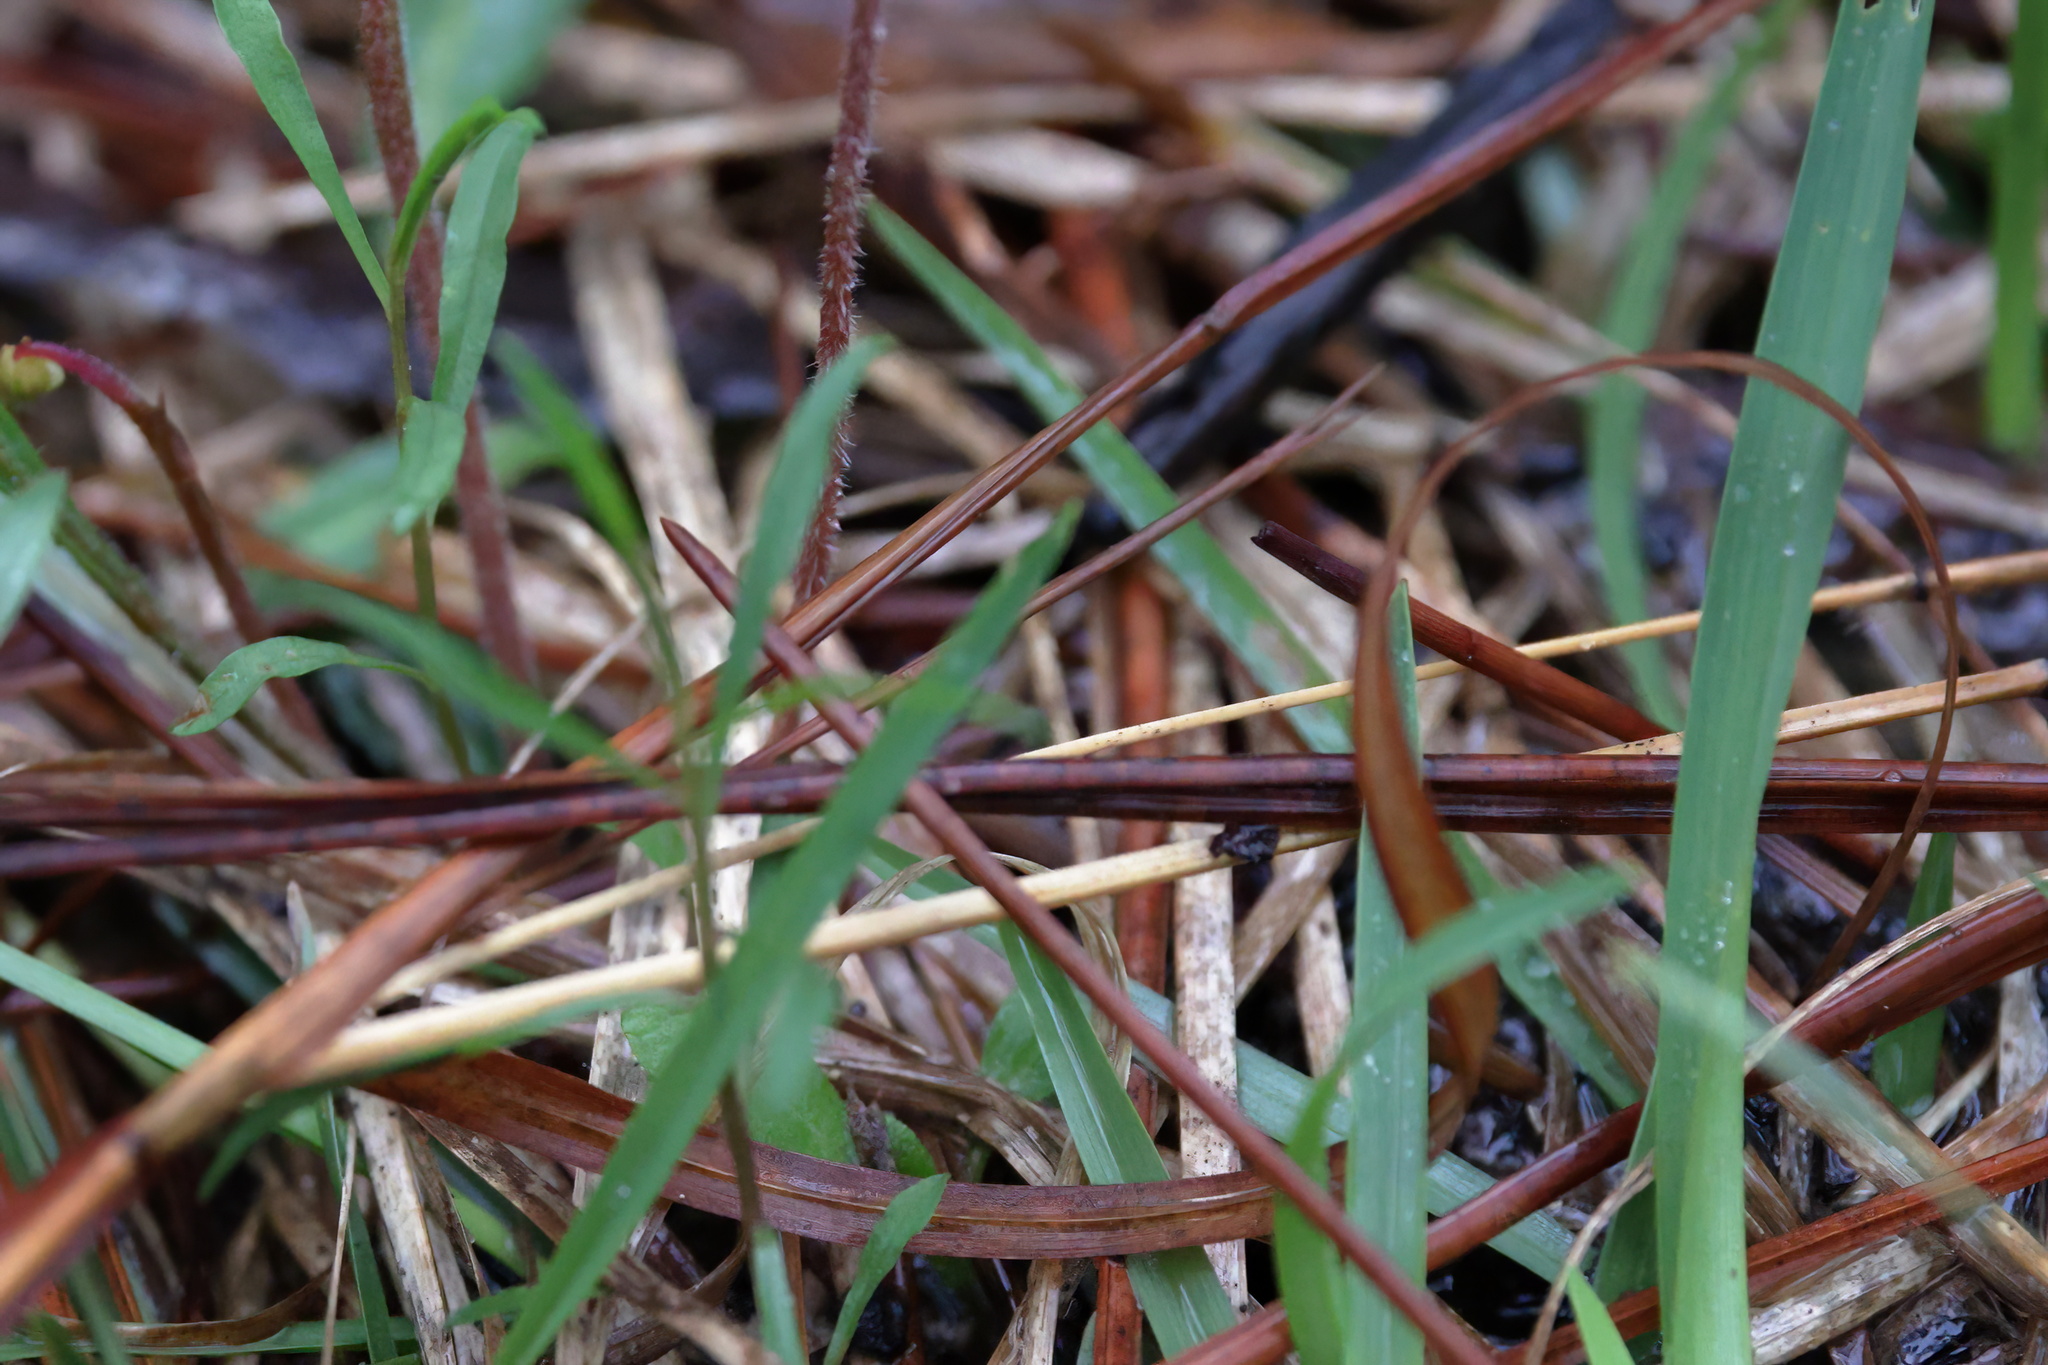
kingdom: Plantae
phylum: Tracheophyta
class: Magnoliopsida
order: Malpighiales
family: Violaceae
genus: Viola
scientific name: Viola lanceolata
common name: Bog white violet
